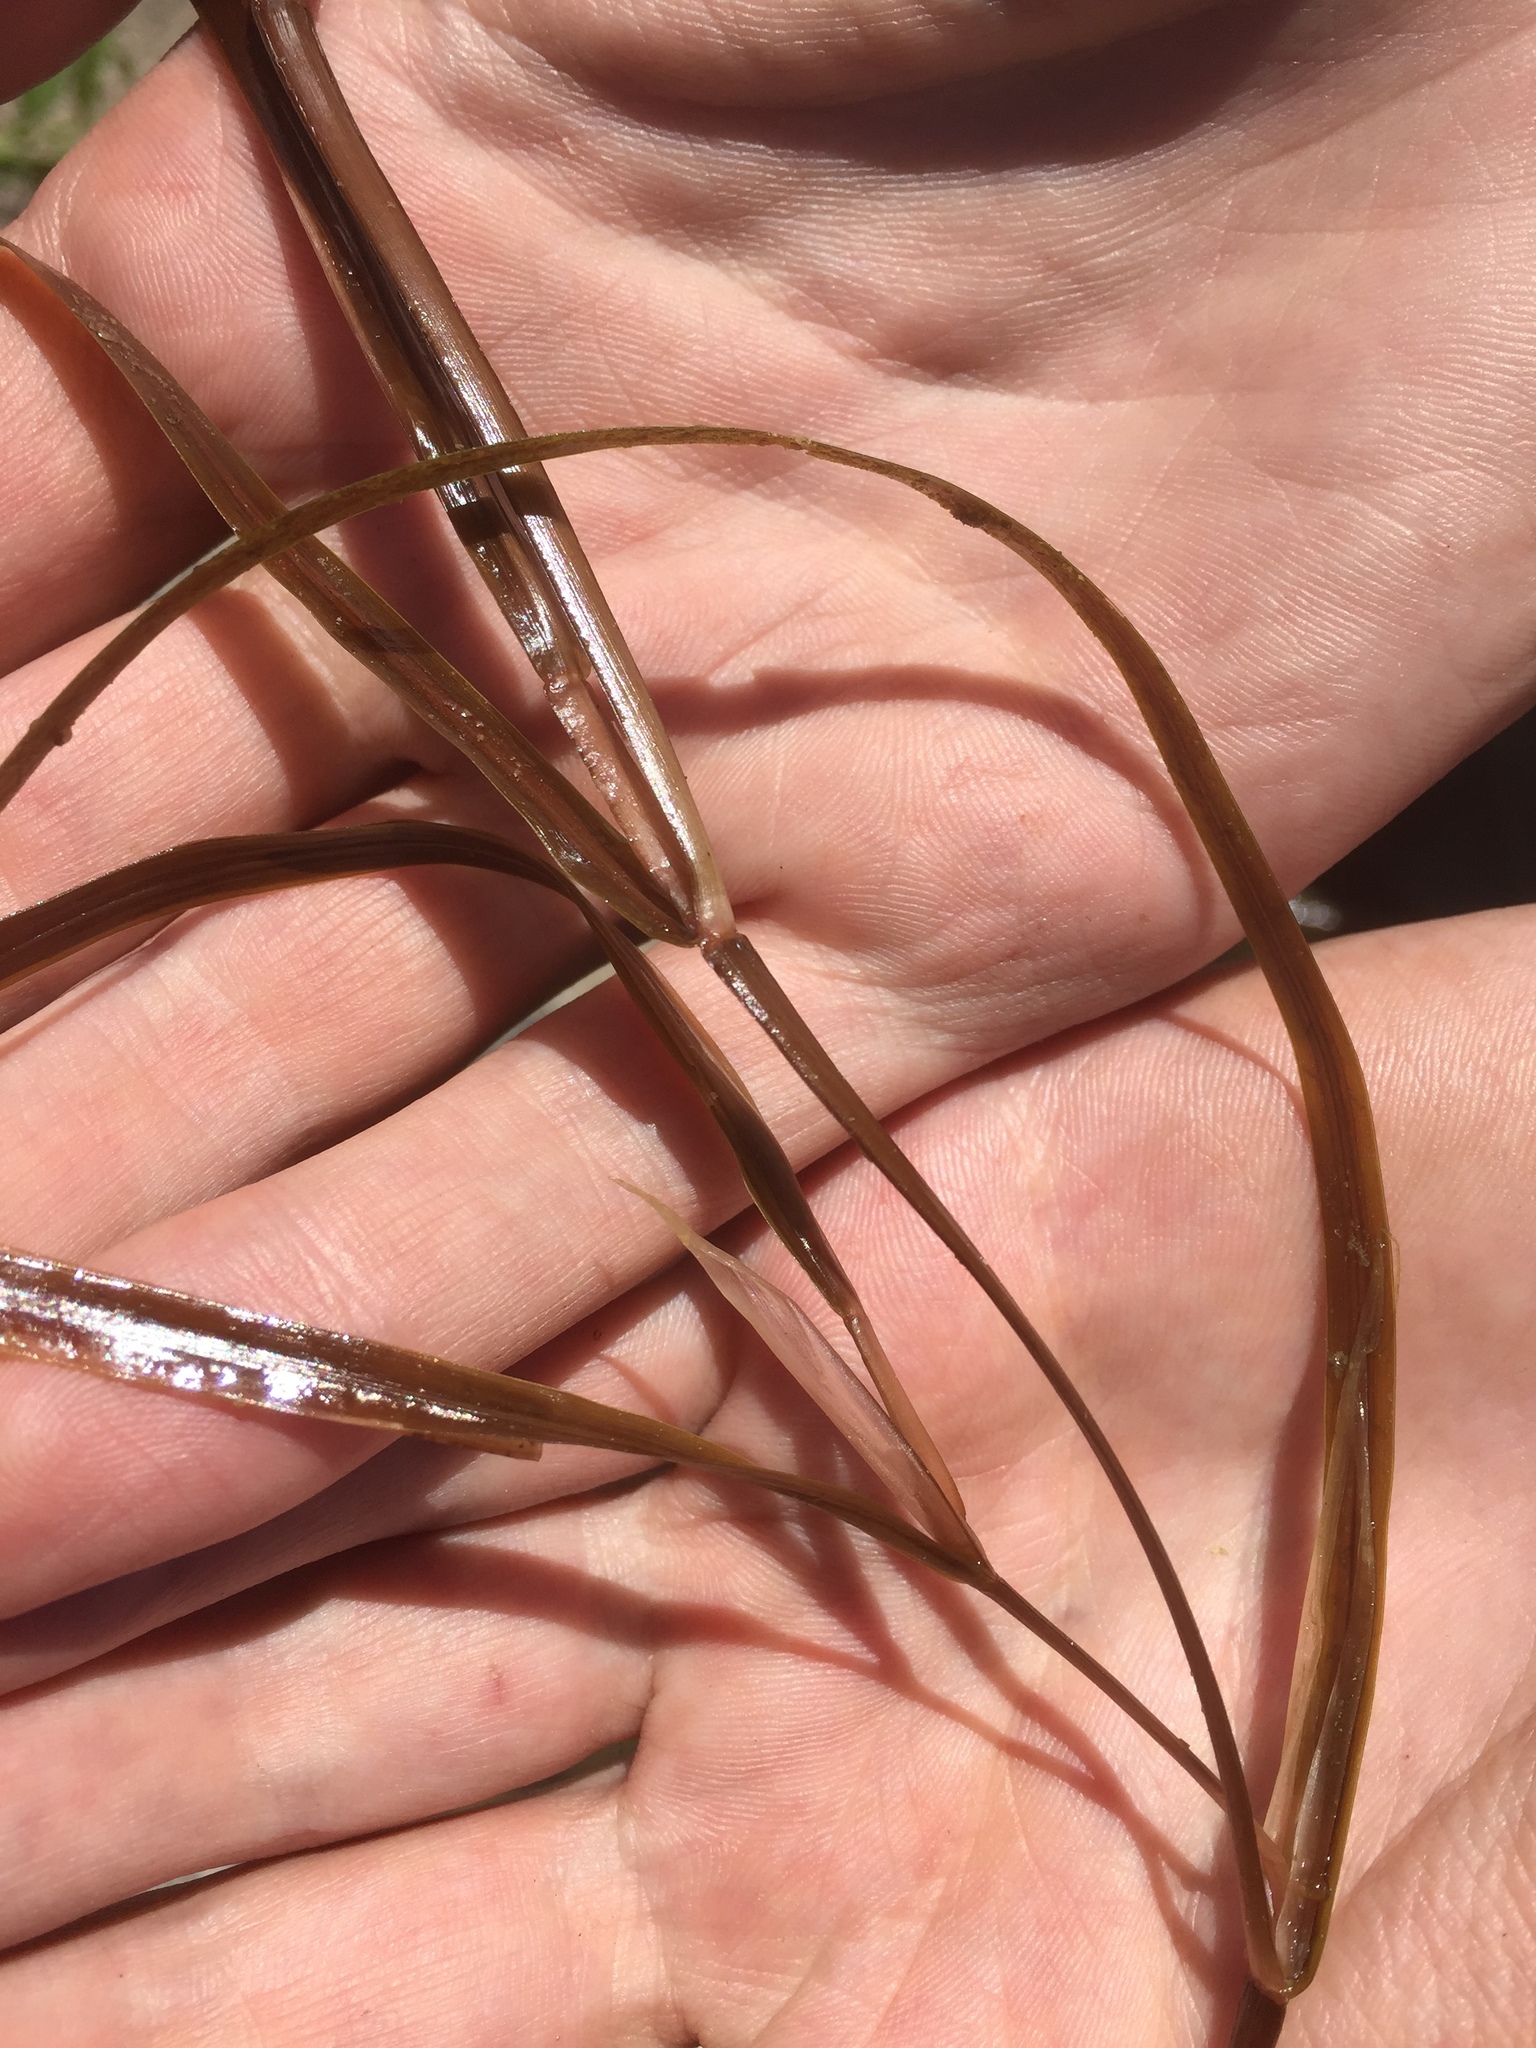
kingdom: Plantae
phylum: Tracheophyta
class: Liliopsida
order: Alismatales
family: Potamogetonaceae
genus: Potamogeton
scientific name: Potamogeton compressus
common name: Grass-wrack pondweed
